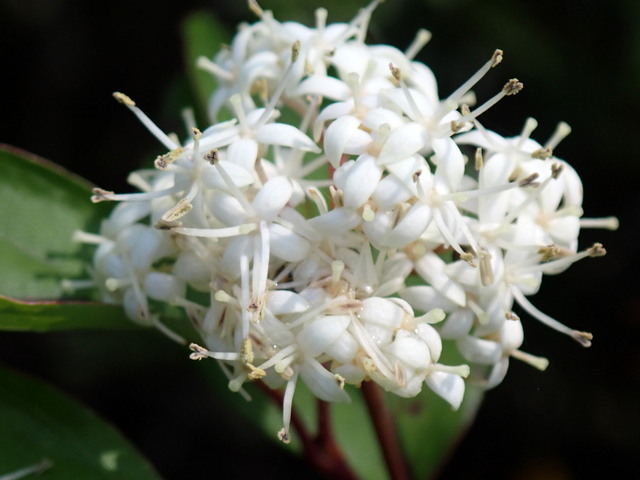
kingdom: Plantae
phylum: Tracheophyta
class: Magnoliopsida
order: Cornales
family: Cornaceae
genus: Cornus
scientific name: Cornus foemina
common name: Swamp dogwood
